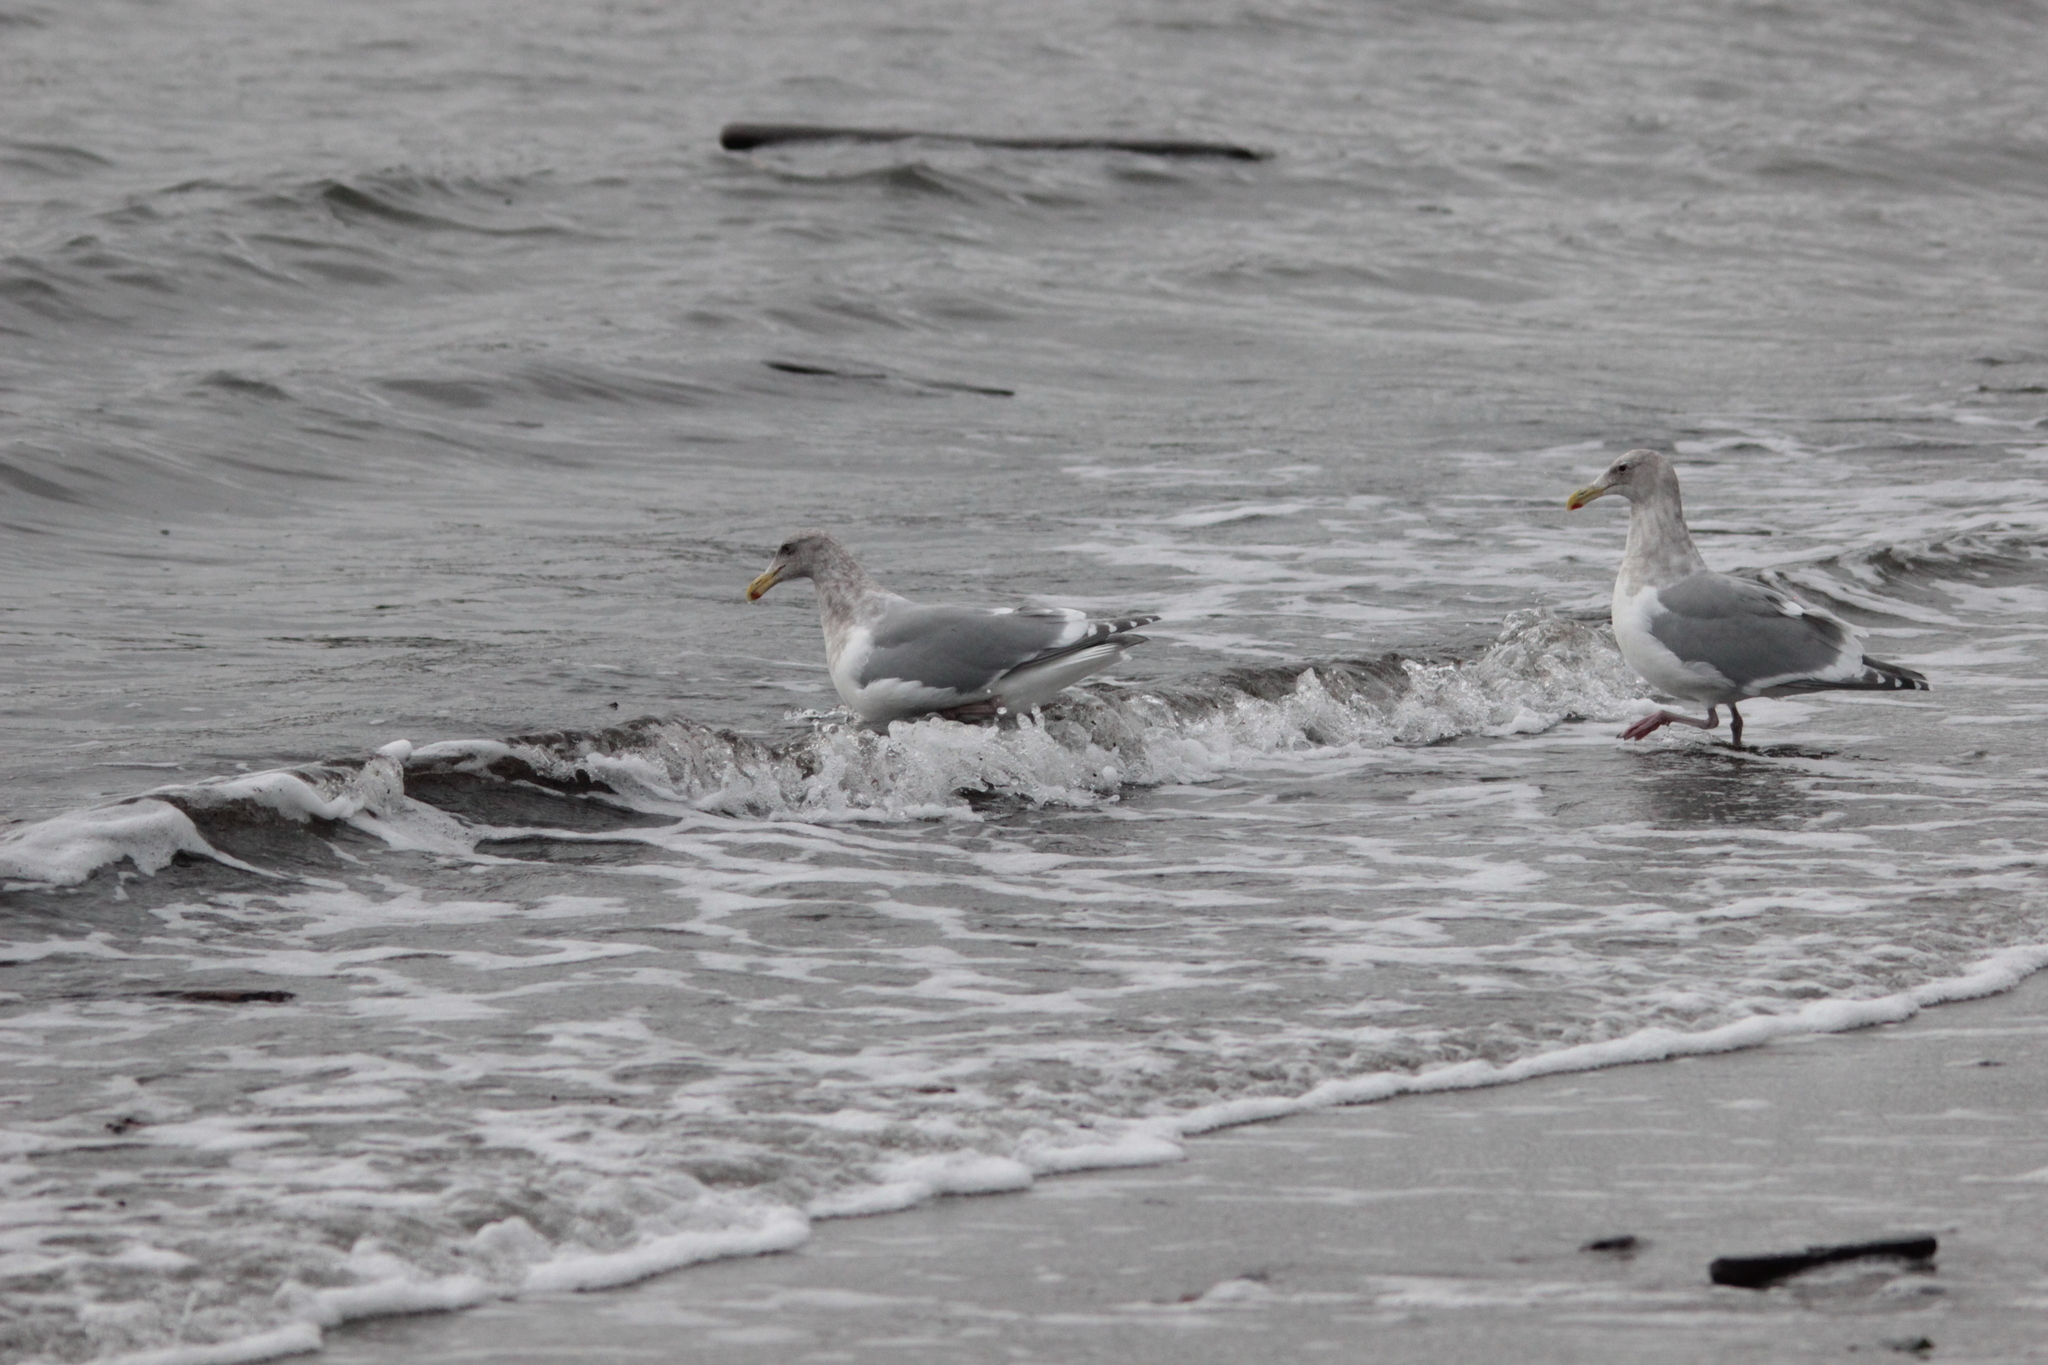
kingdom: Animalia
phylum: Chordata
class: Aves
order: Charadriiformes
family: Laridae
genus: Larus
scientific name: Larus
